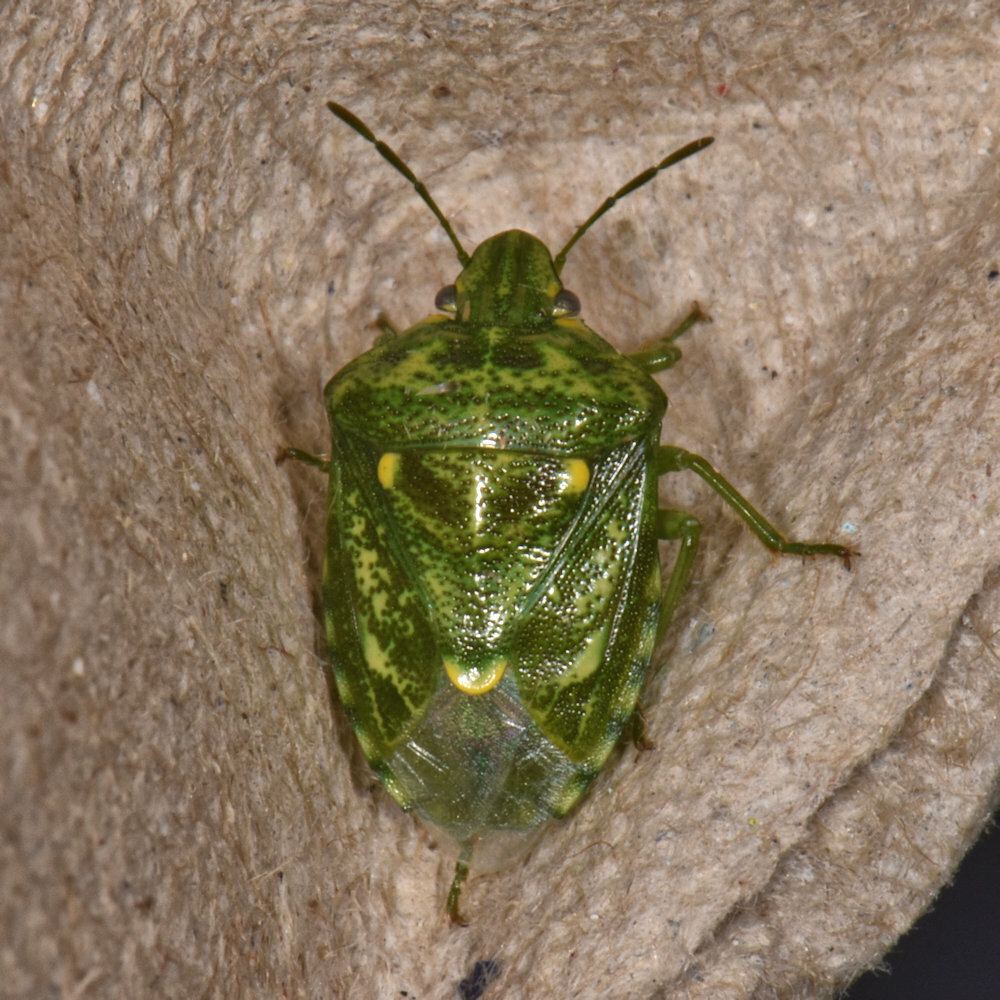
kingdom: Animalia
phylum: Arthropoda
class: Insecta
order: Hemiptera
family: Pentatomidae
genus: Banasa
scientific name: Banasa euchlora
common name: Cedar berry bug
